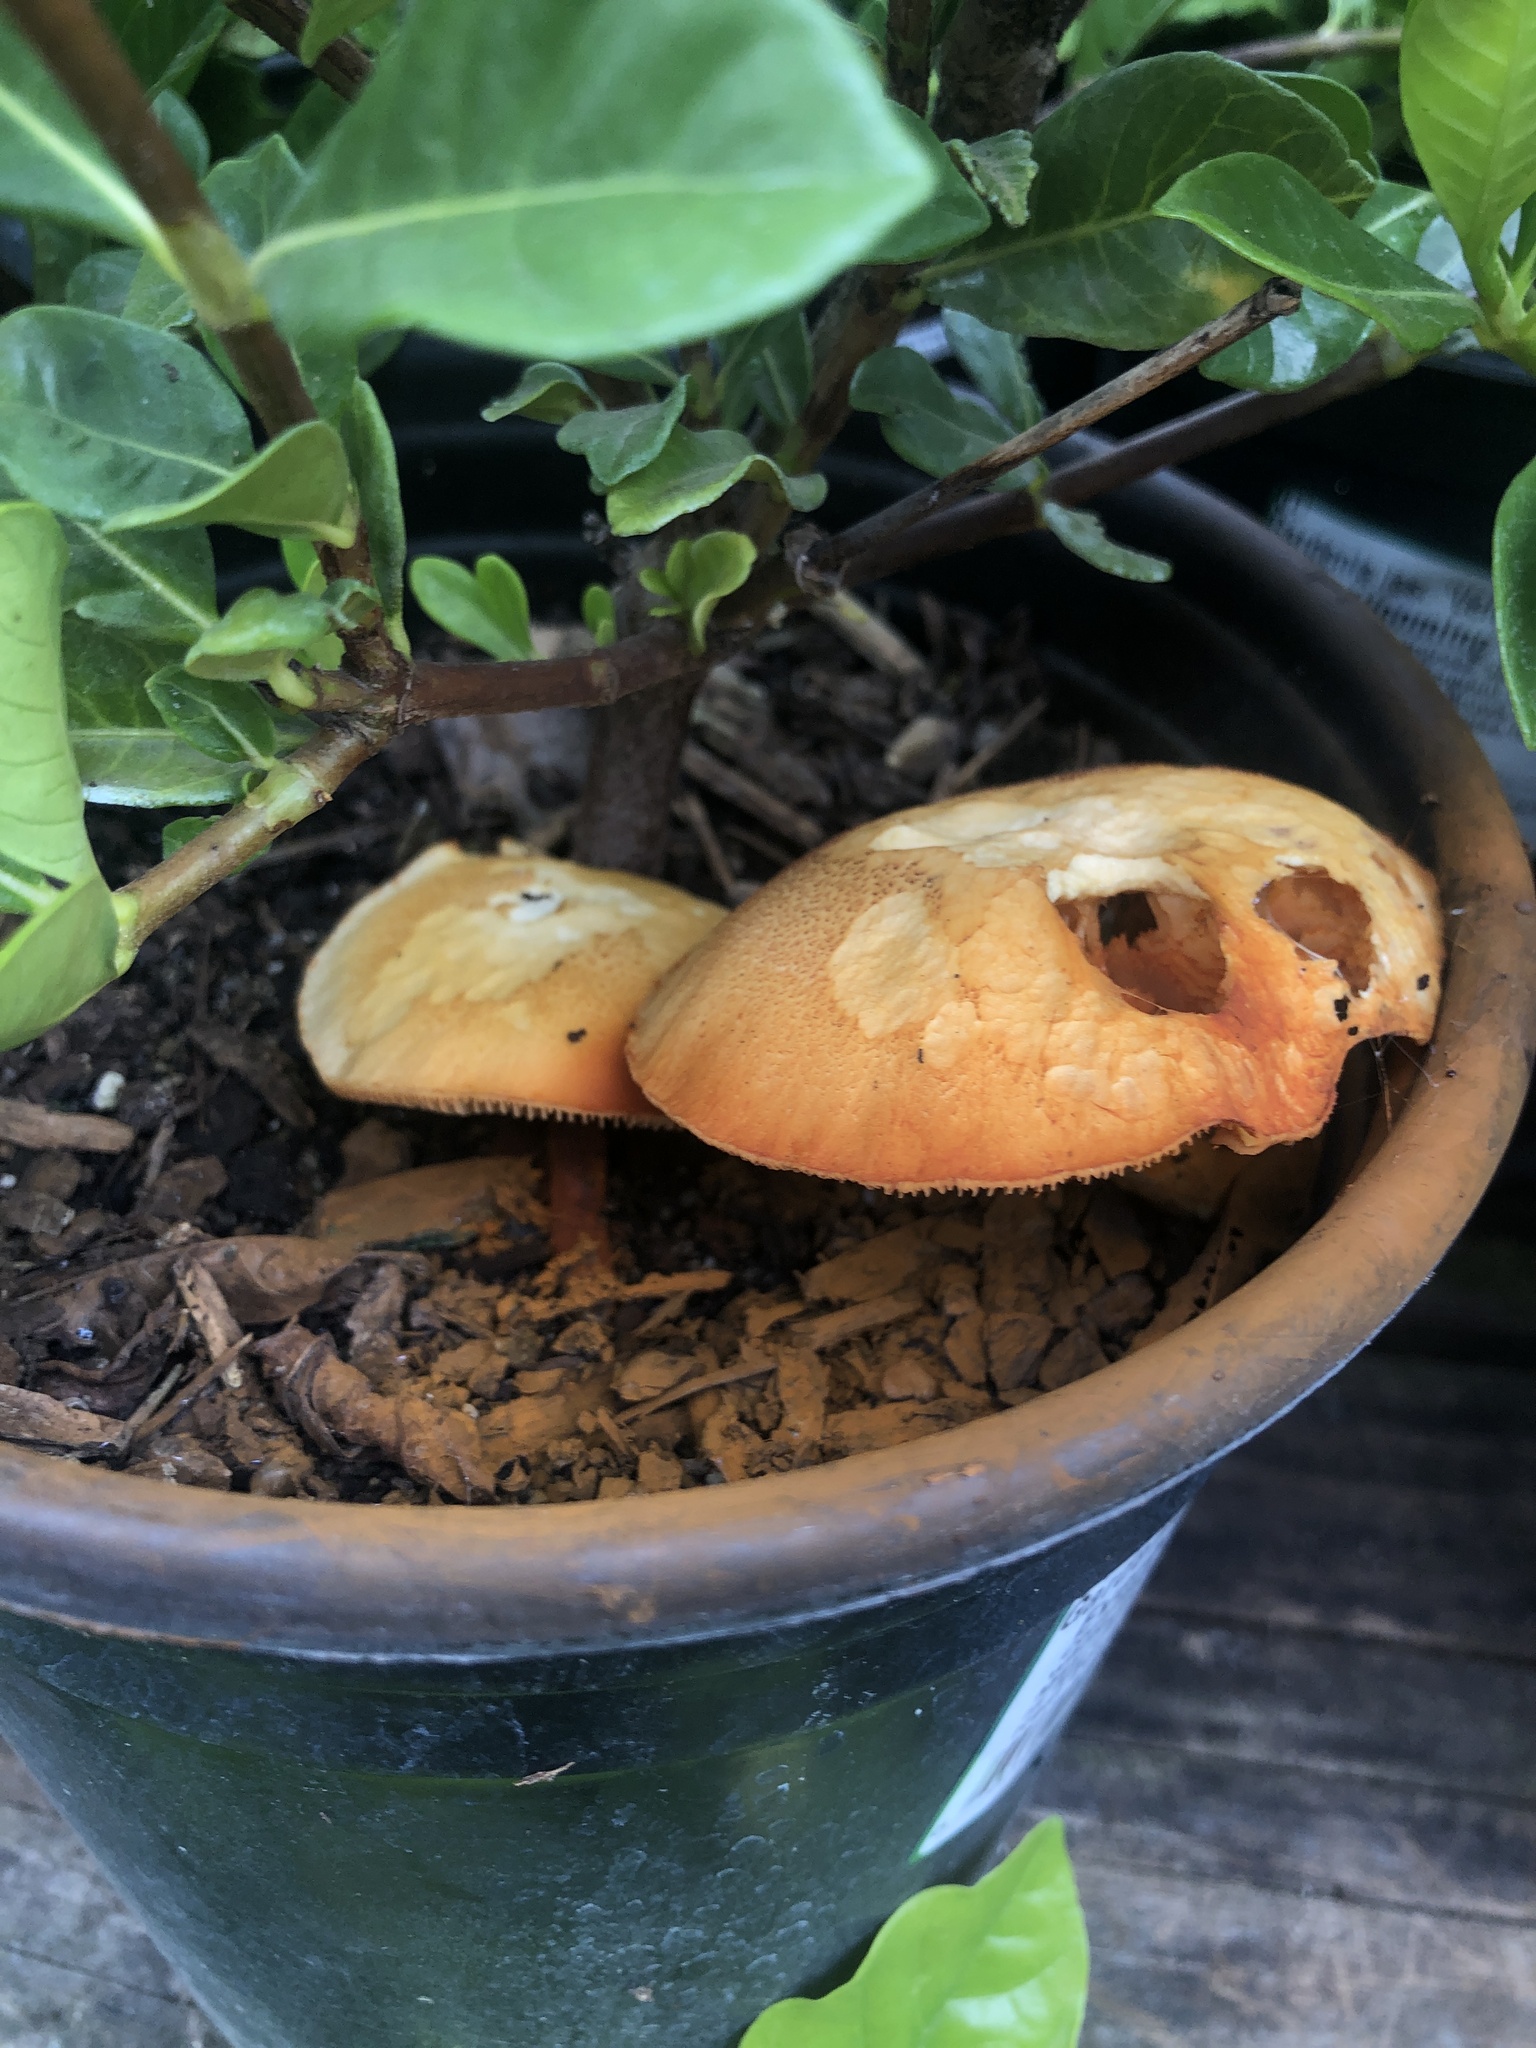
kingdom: Fungi
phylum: Basidiomycota
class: Agaricomycetes
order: Agaricales
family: Hymenogastraceae
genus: Gymnopilus
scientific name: Gymnopilus luteofolius
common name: Yellow-gilled gymnopilus
